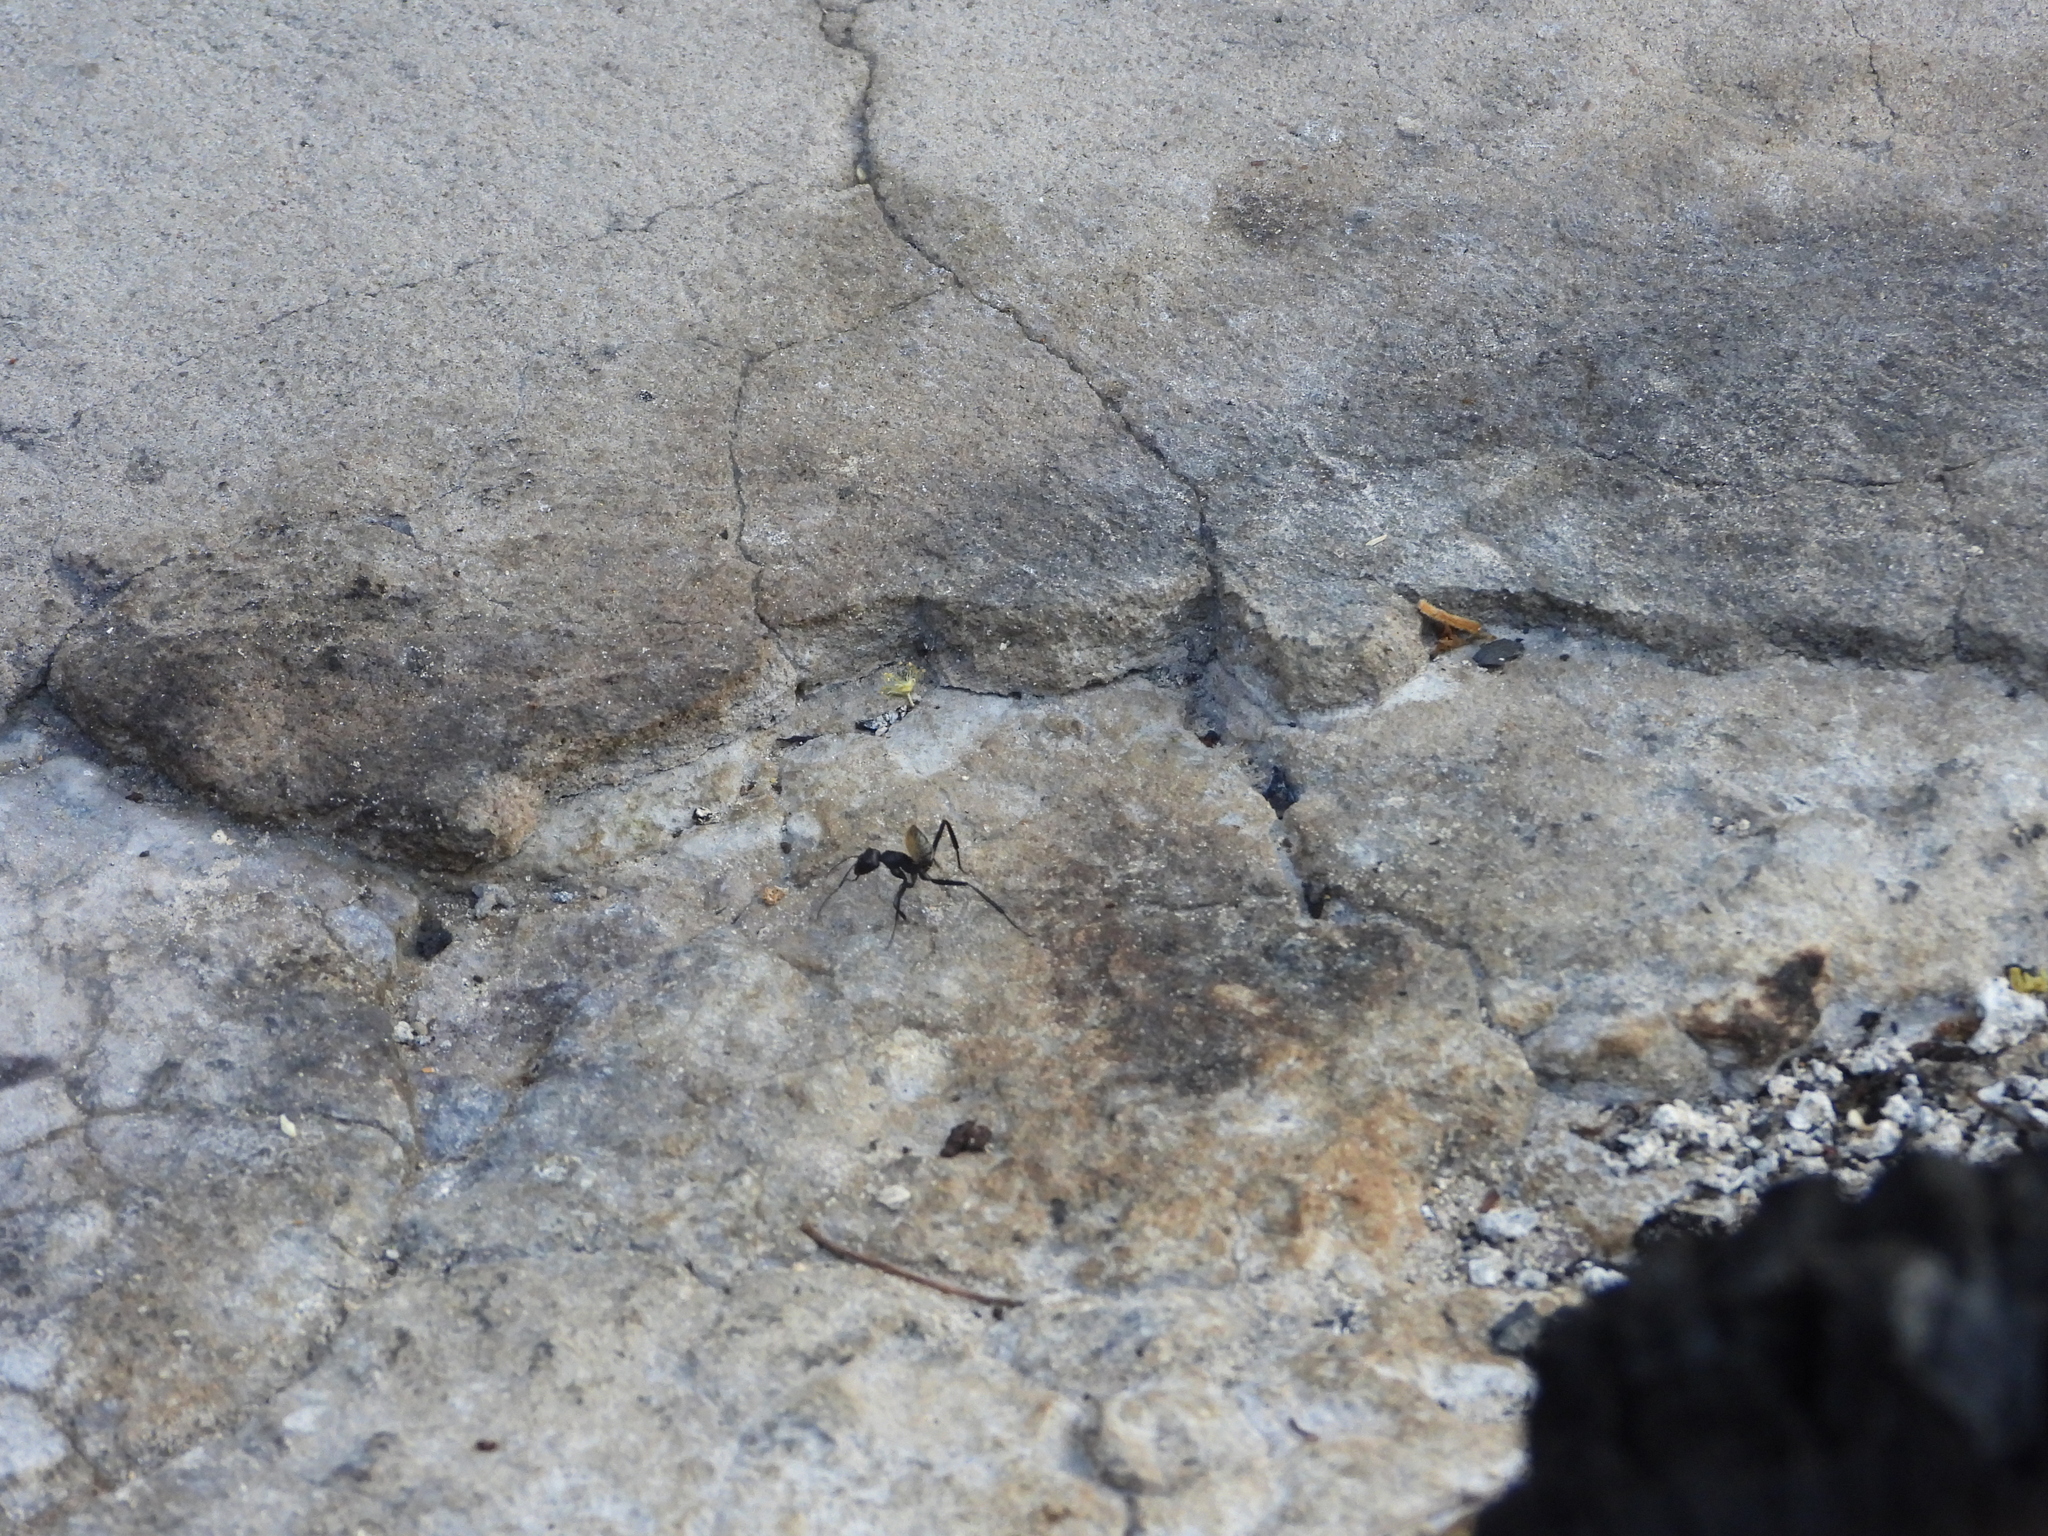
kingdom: Animalia
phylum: Chordata
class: Aves
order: Pelecaniformes
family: Scopidae
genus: Scopus
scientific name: Scopus umbretta
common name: Hamerkop
